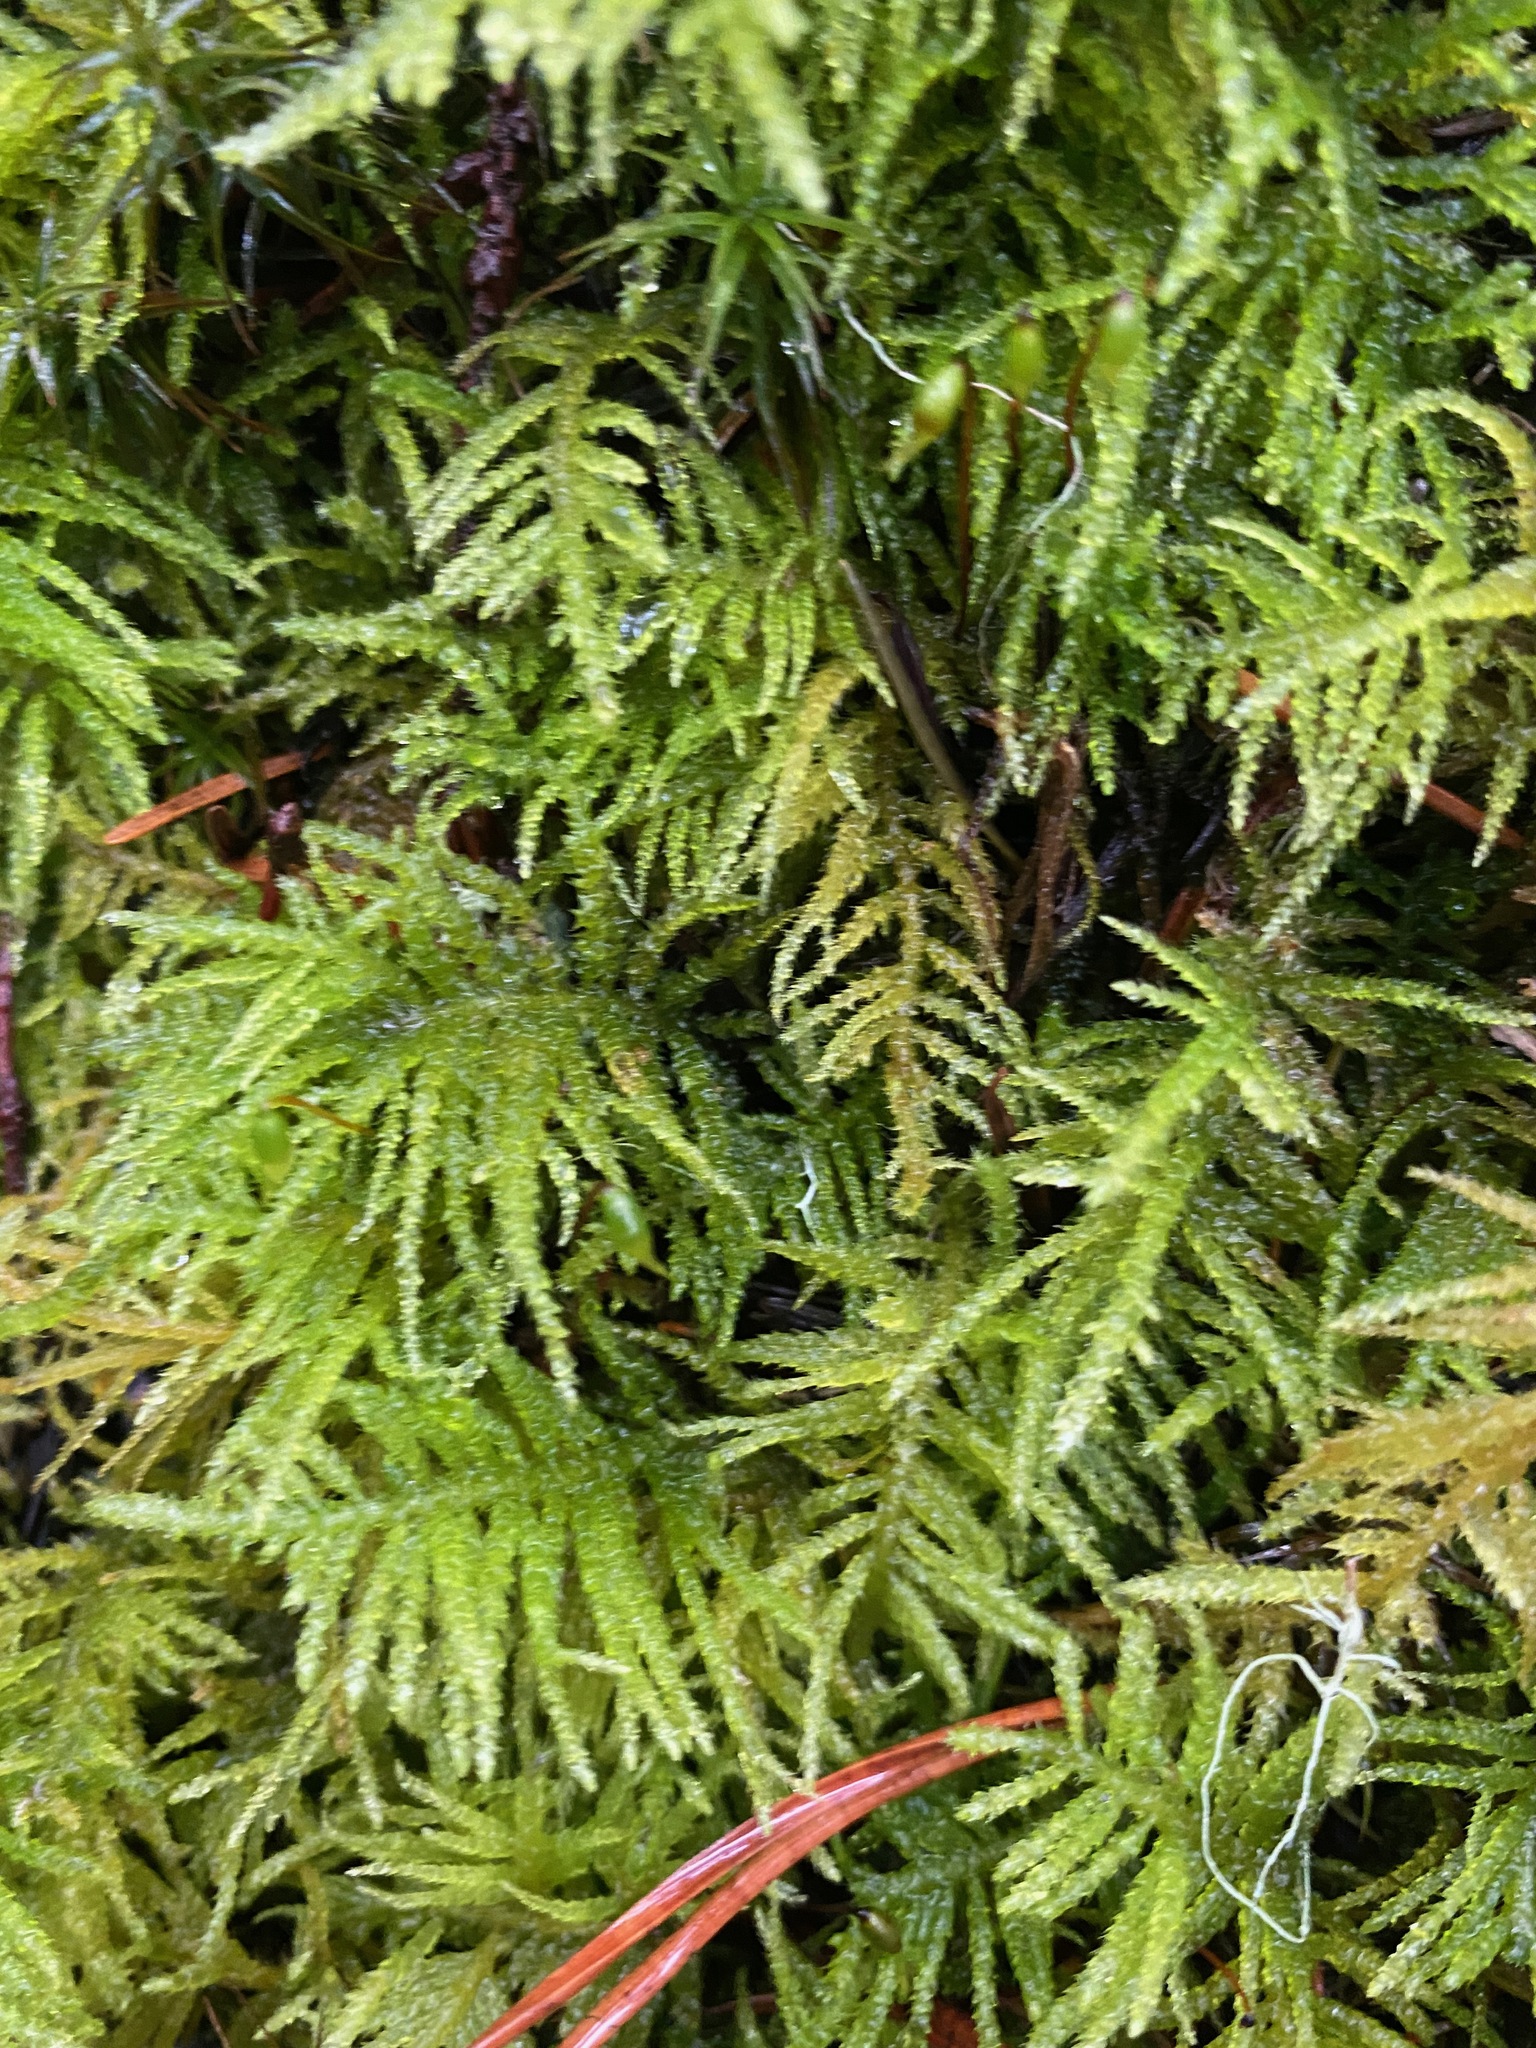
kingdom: Plantae
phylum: Bryophyta
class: Bryopsida
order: Hypnales
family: Brachytheciaceae
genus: Kindbergia
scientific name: Kindbergia oregana
